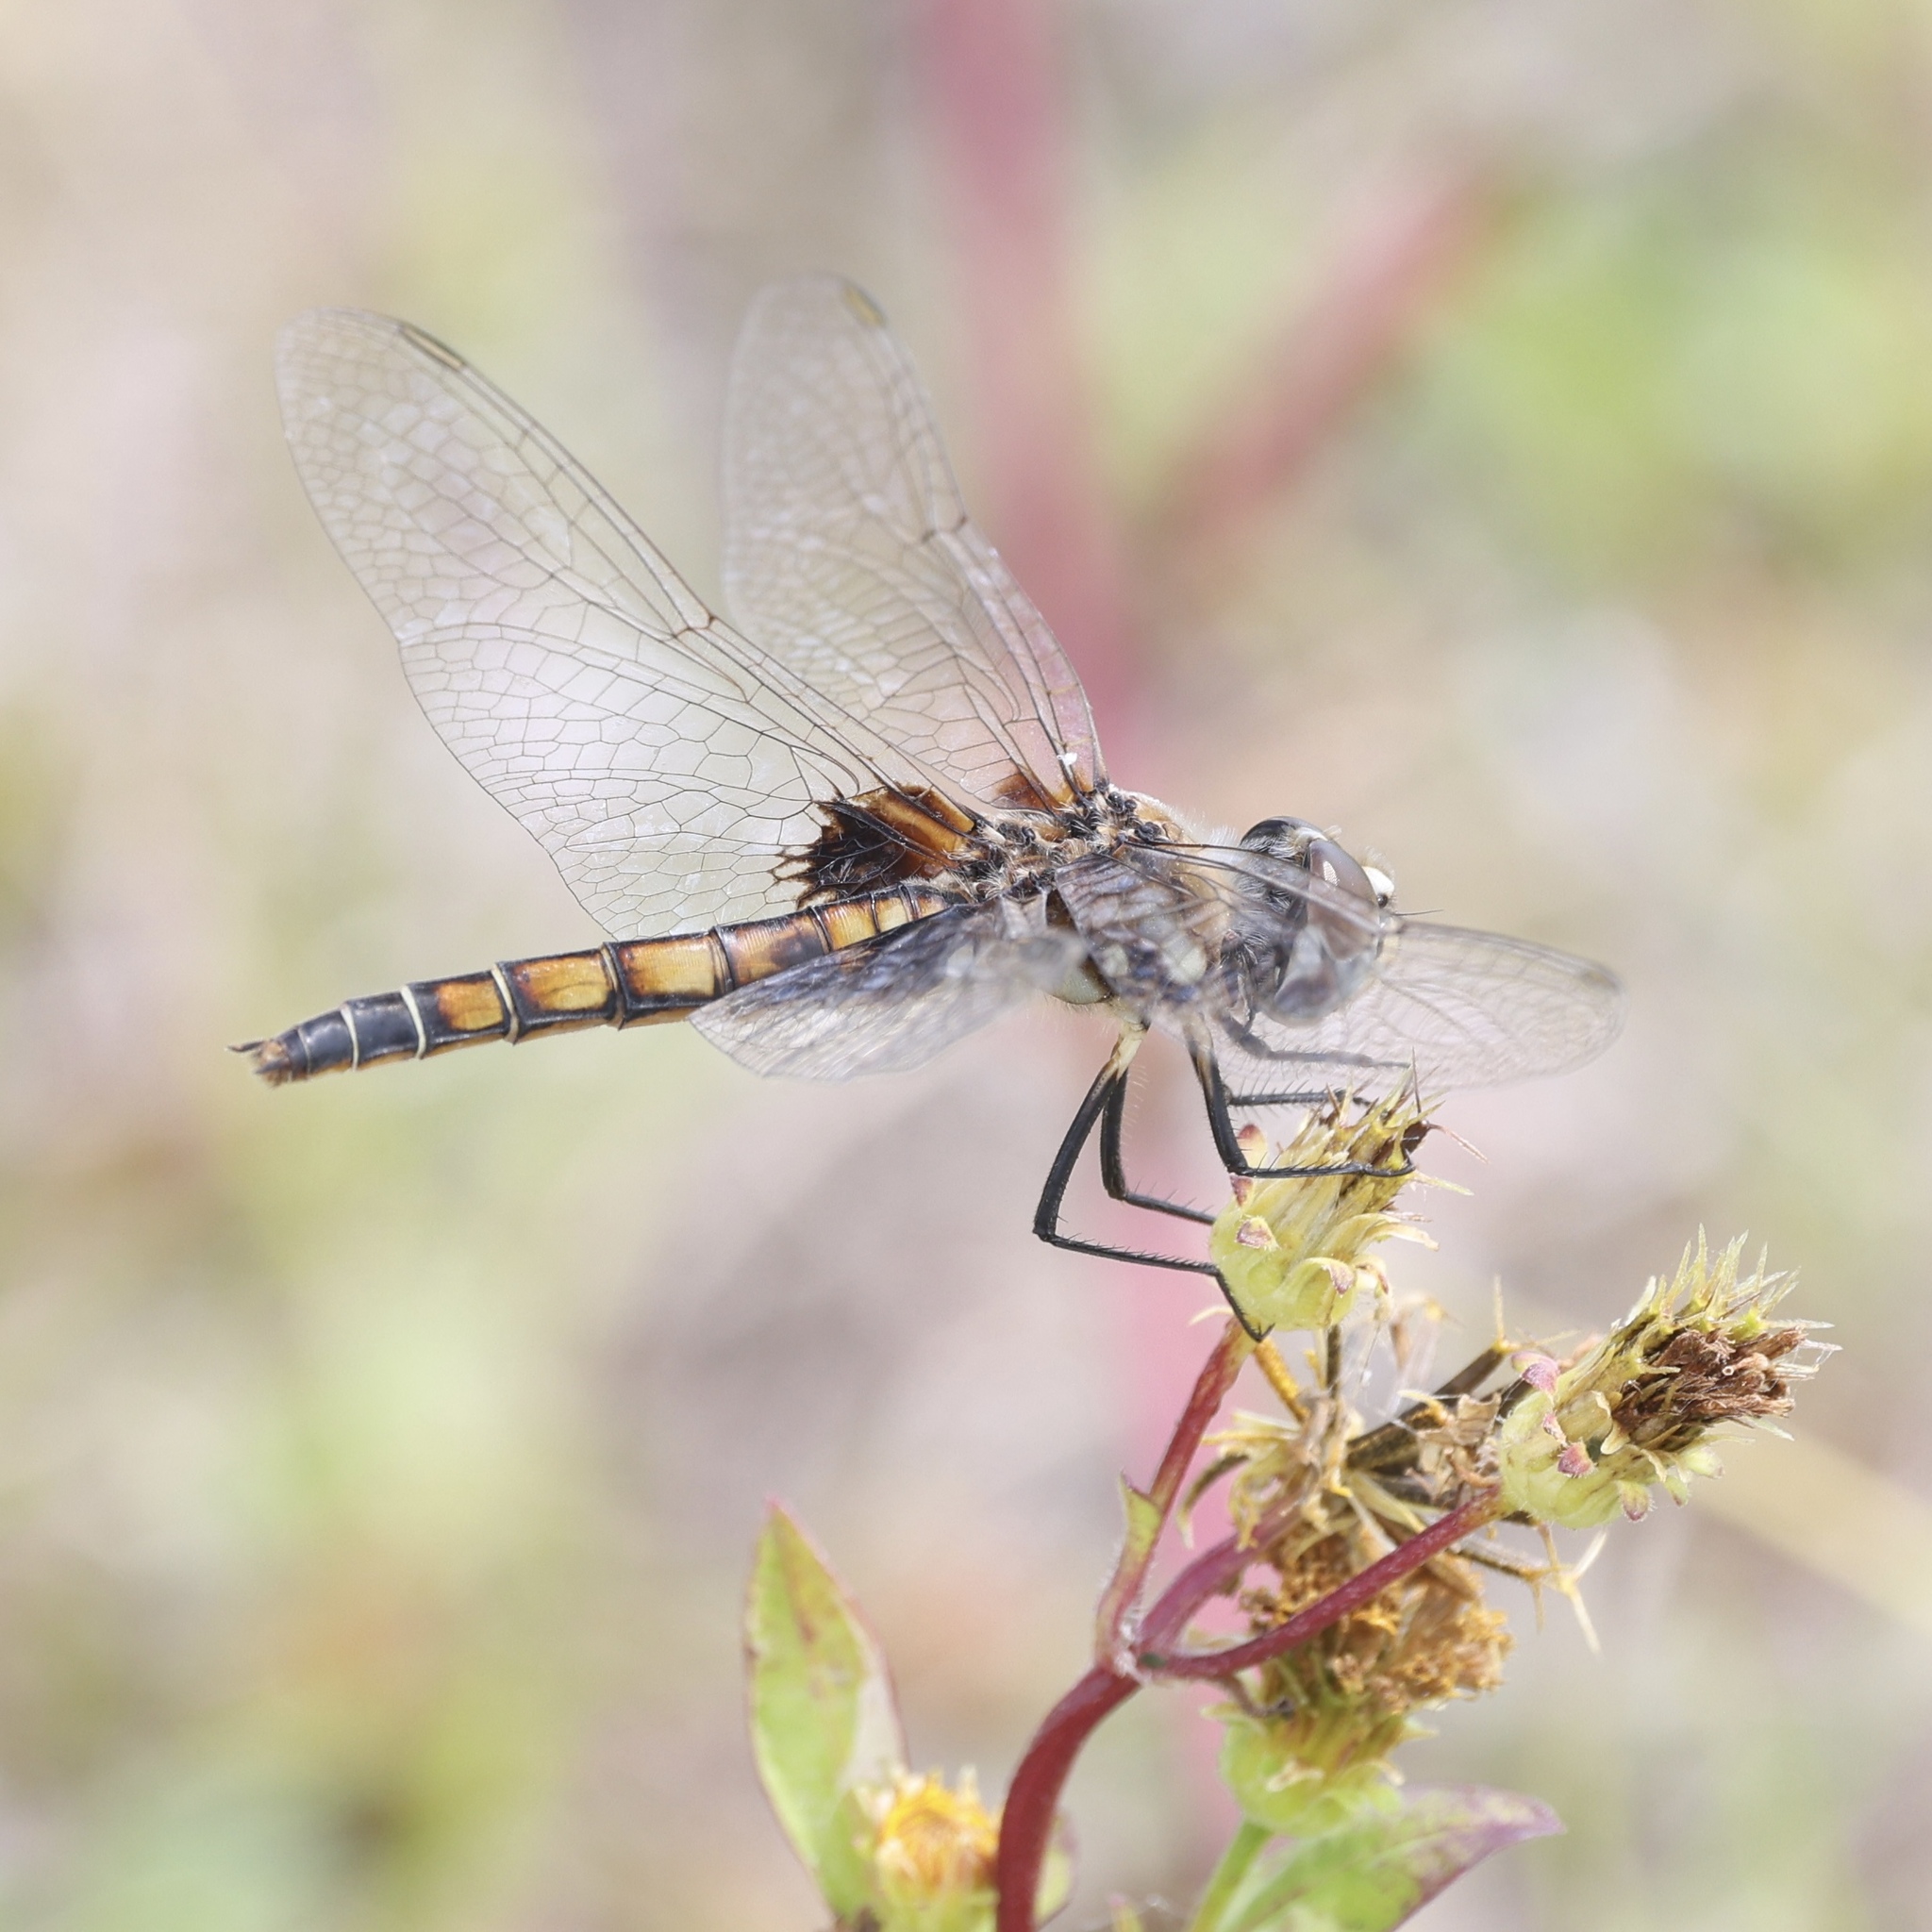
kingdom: Animalia
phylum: Arthropoda
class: Insecta
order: Odonata
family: Libellulidae
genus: Macrodiplax
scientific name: Macrodiplax balteata
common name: Marl pennant
